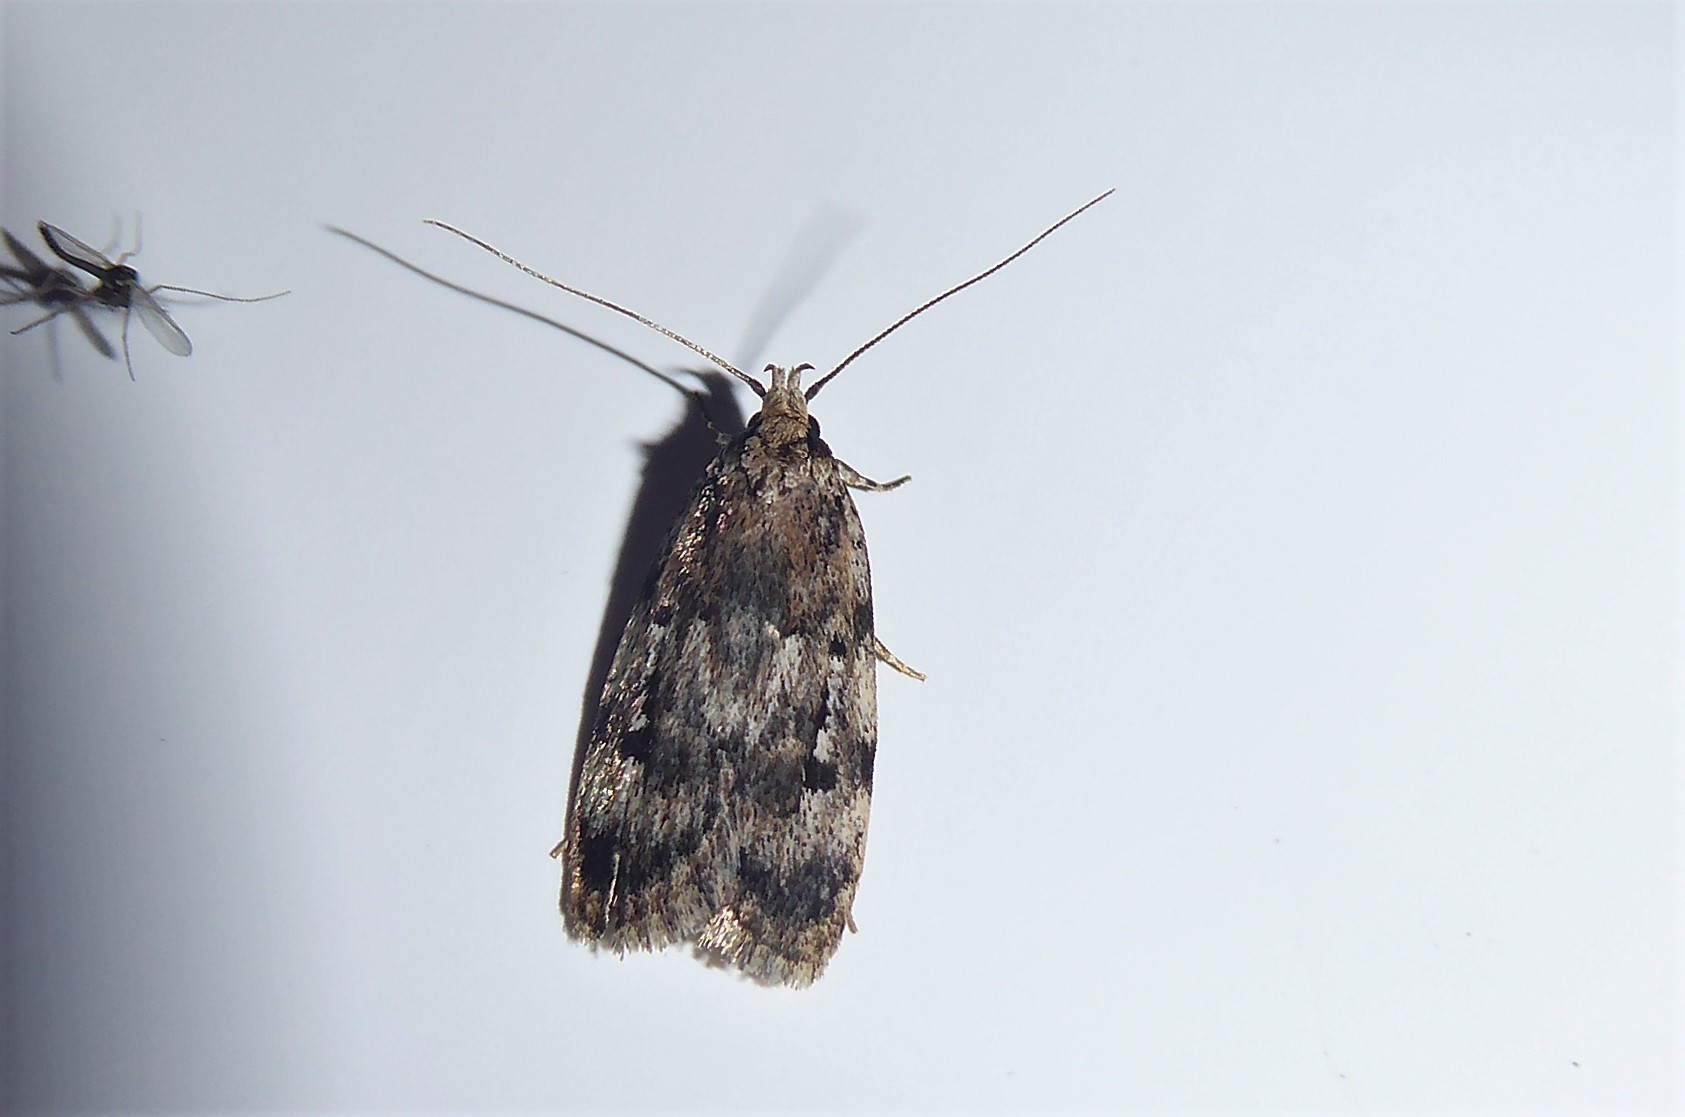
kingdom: Animalia
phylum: Arthropoda
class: Insecta
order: Lepidoptera
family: Oecophoridae
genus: Barea
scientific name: Barea exarcha
